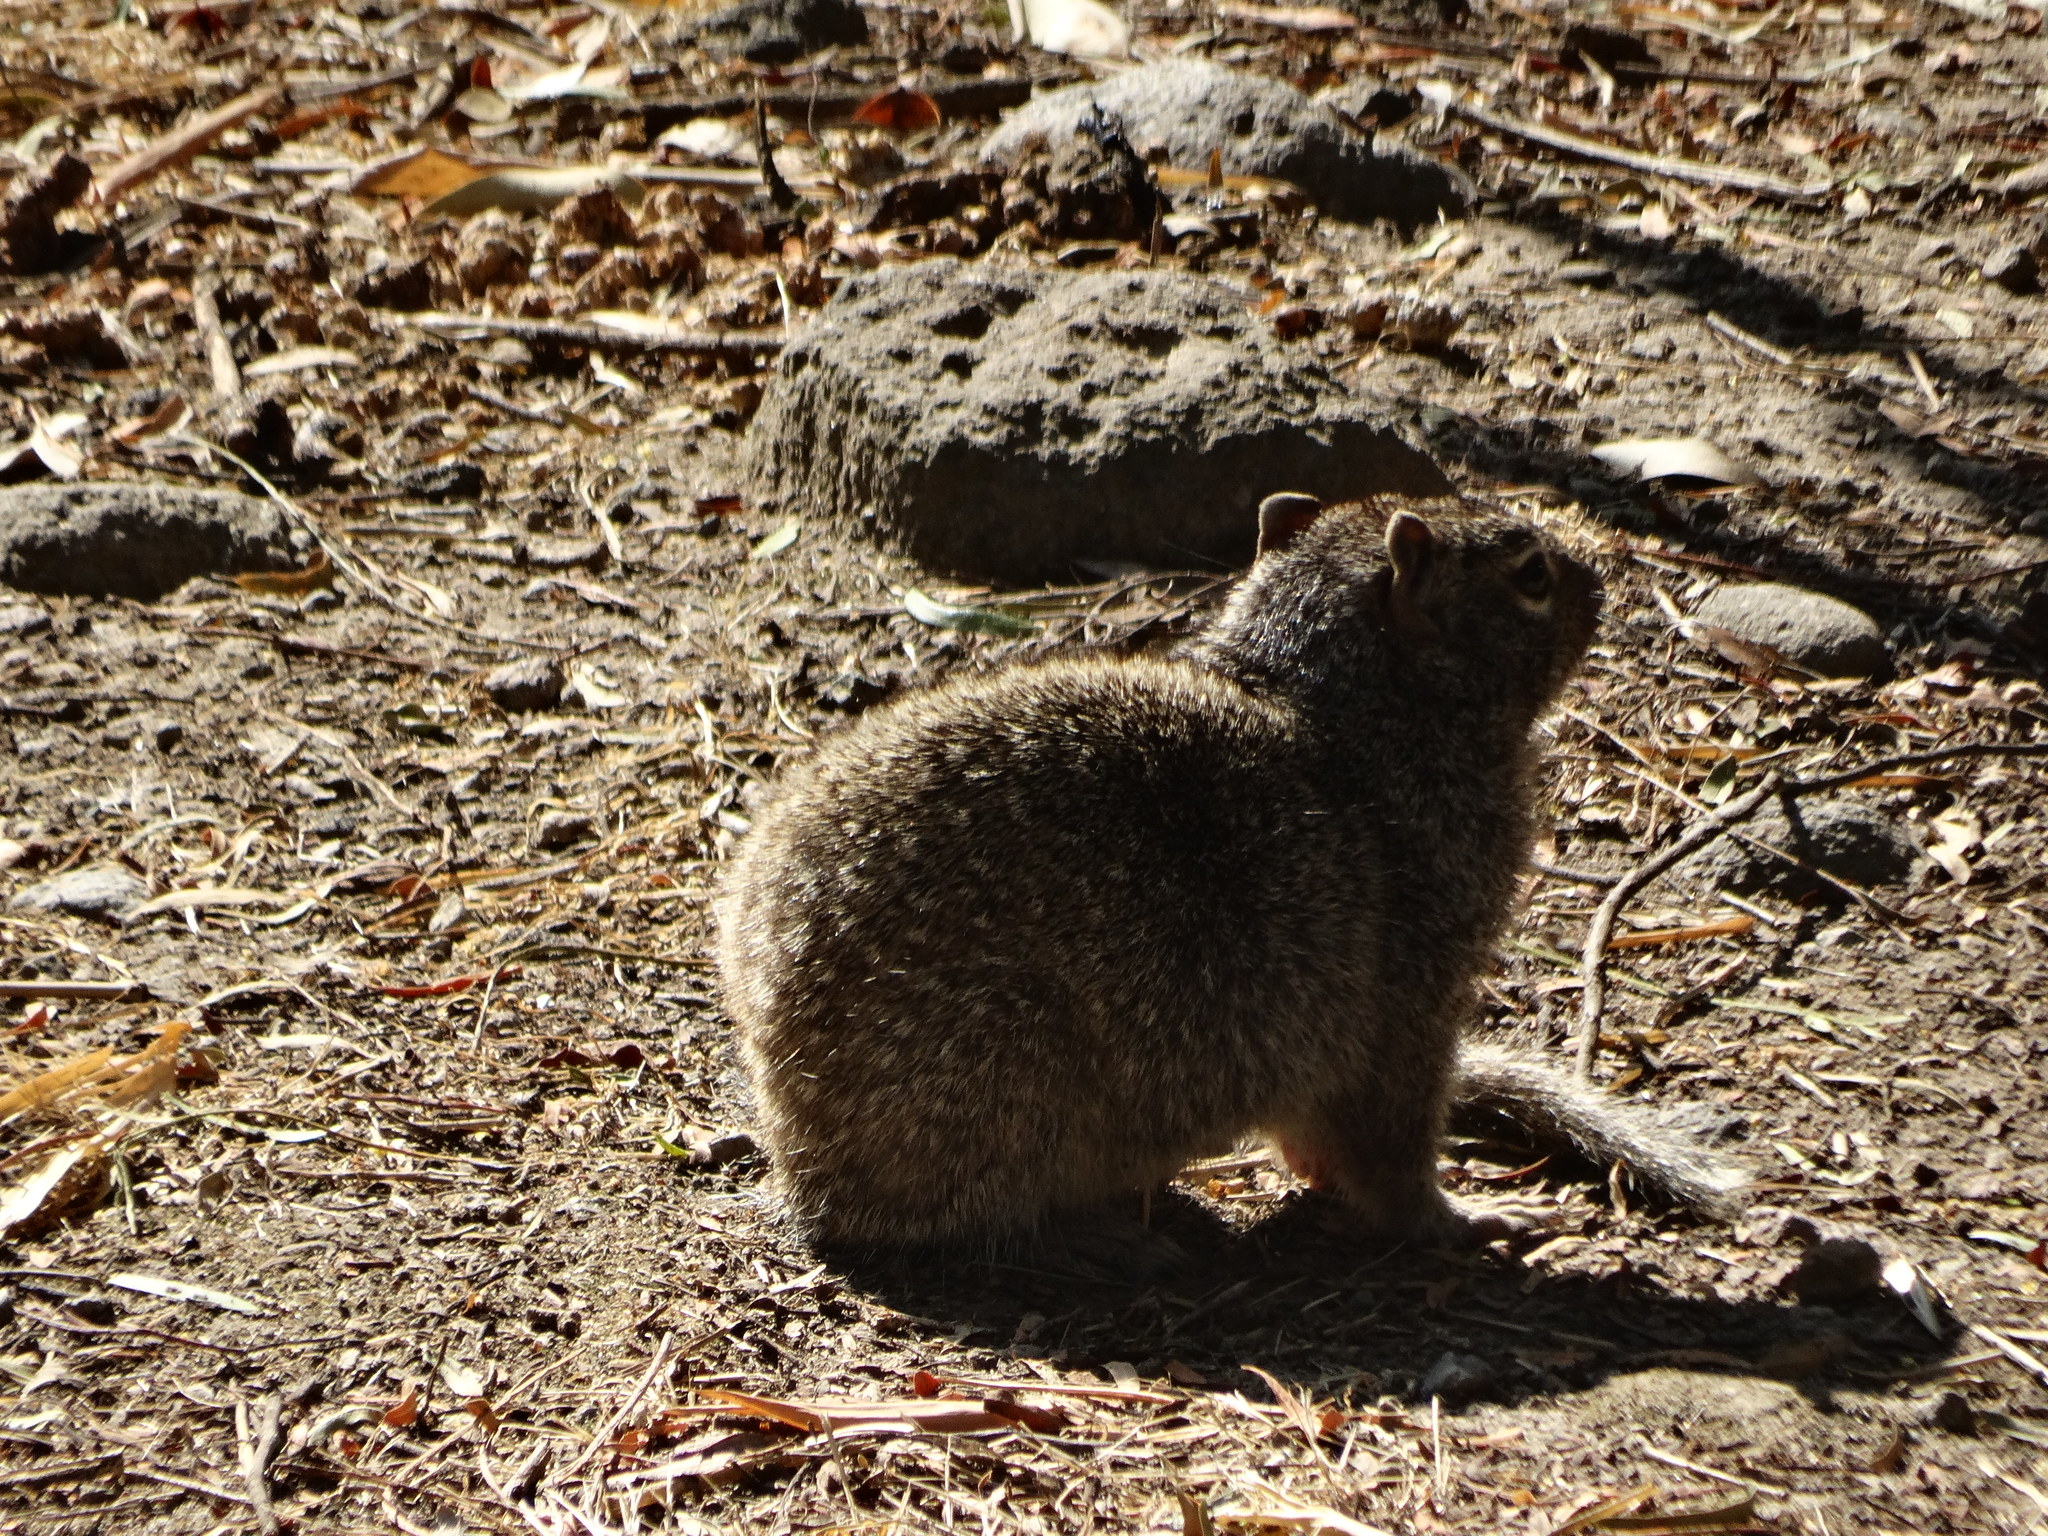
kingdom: Animalia
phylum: Chordata
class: Mammalia
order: Rodentia
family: Sciuridae
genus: Otospermophilus
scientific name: Otospermophilus variegatus
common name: Rock squirrel
